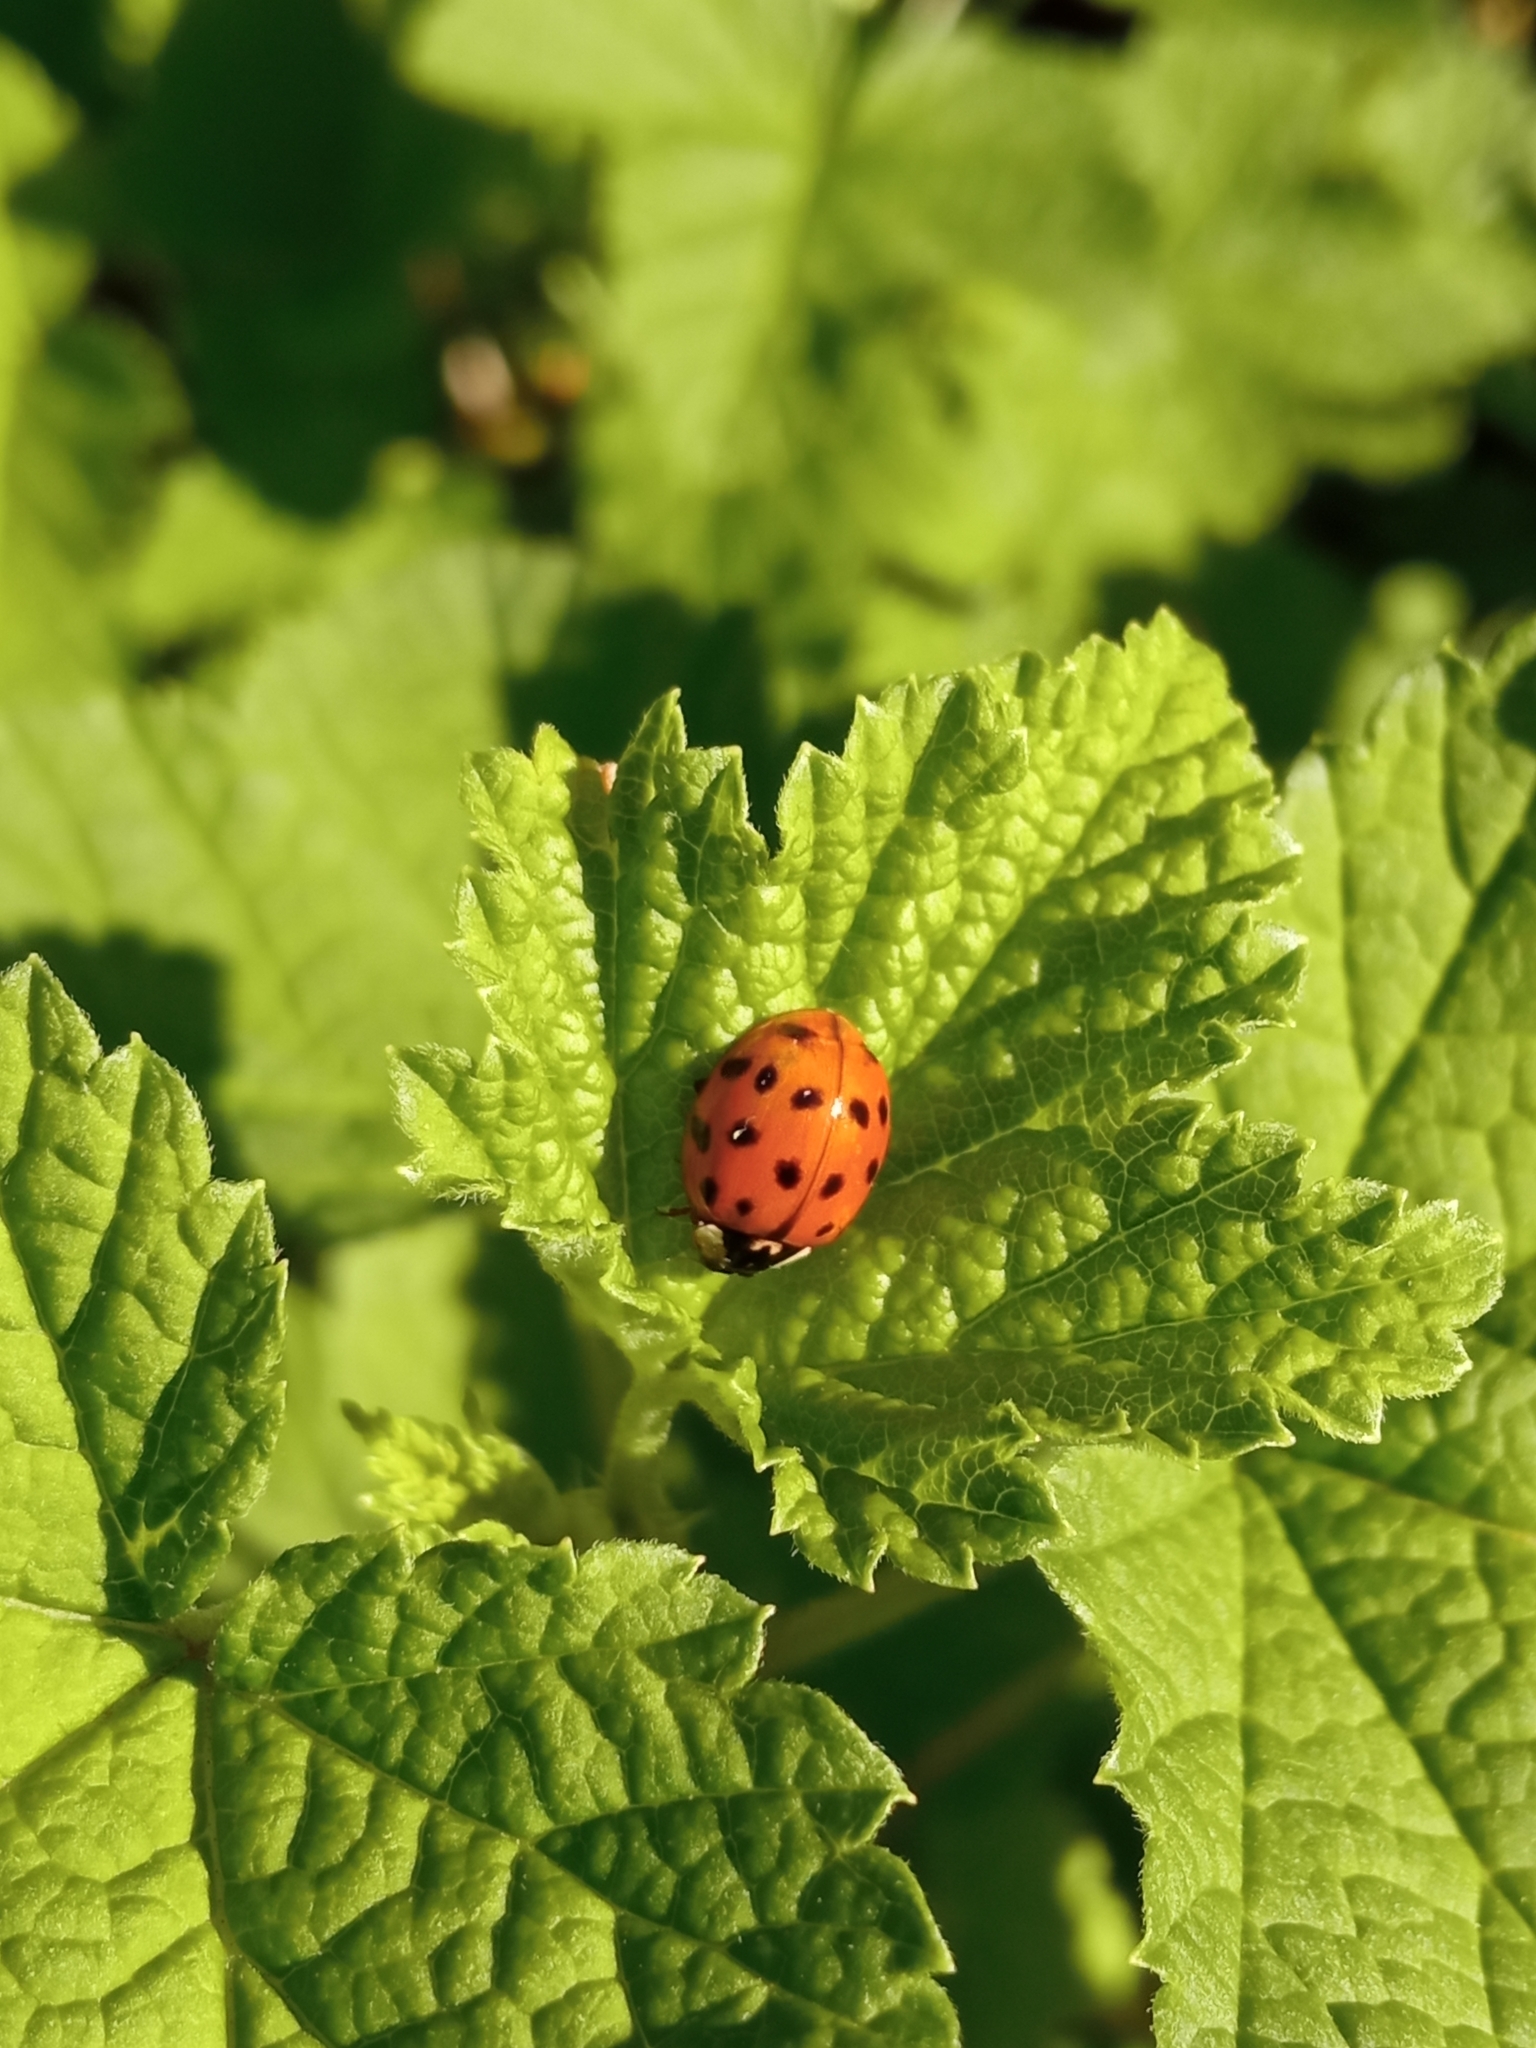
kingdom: Animalia
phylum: Arthropoda
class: Insecta
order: Coleoptera
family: Coccinellidae
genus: Harmonia
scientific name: Harmonia axyridis
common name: Harlequin ladybird
